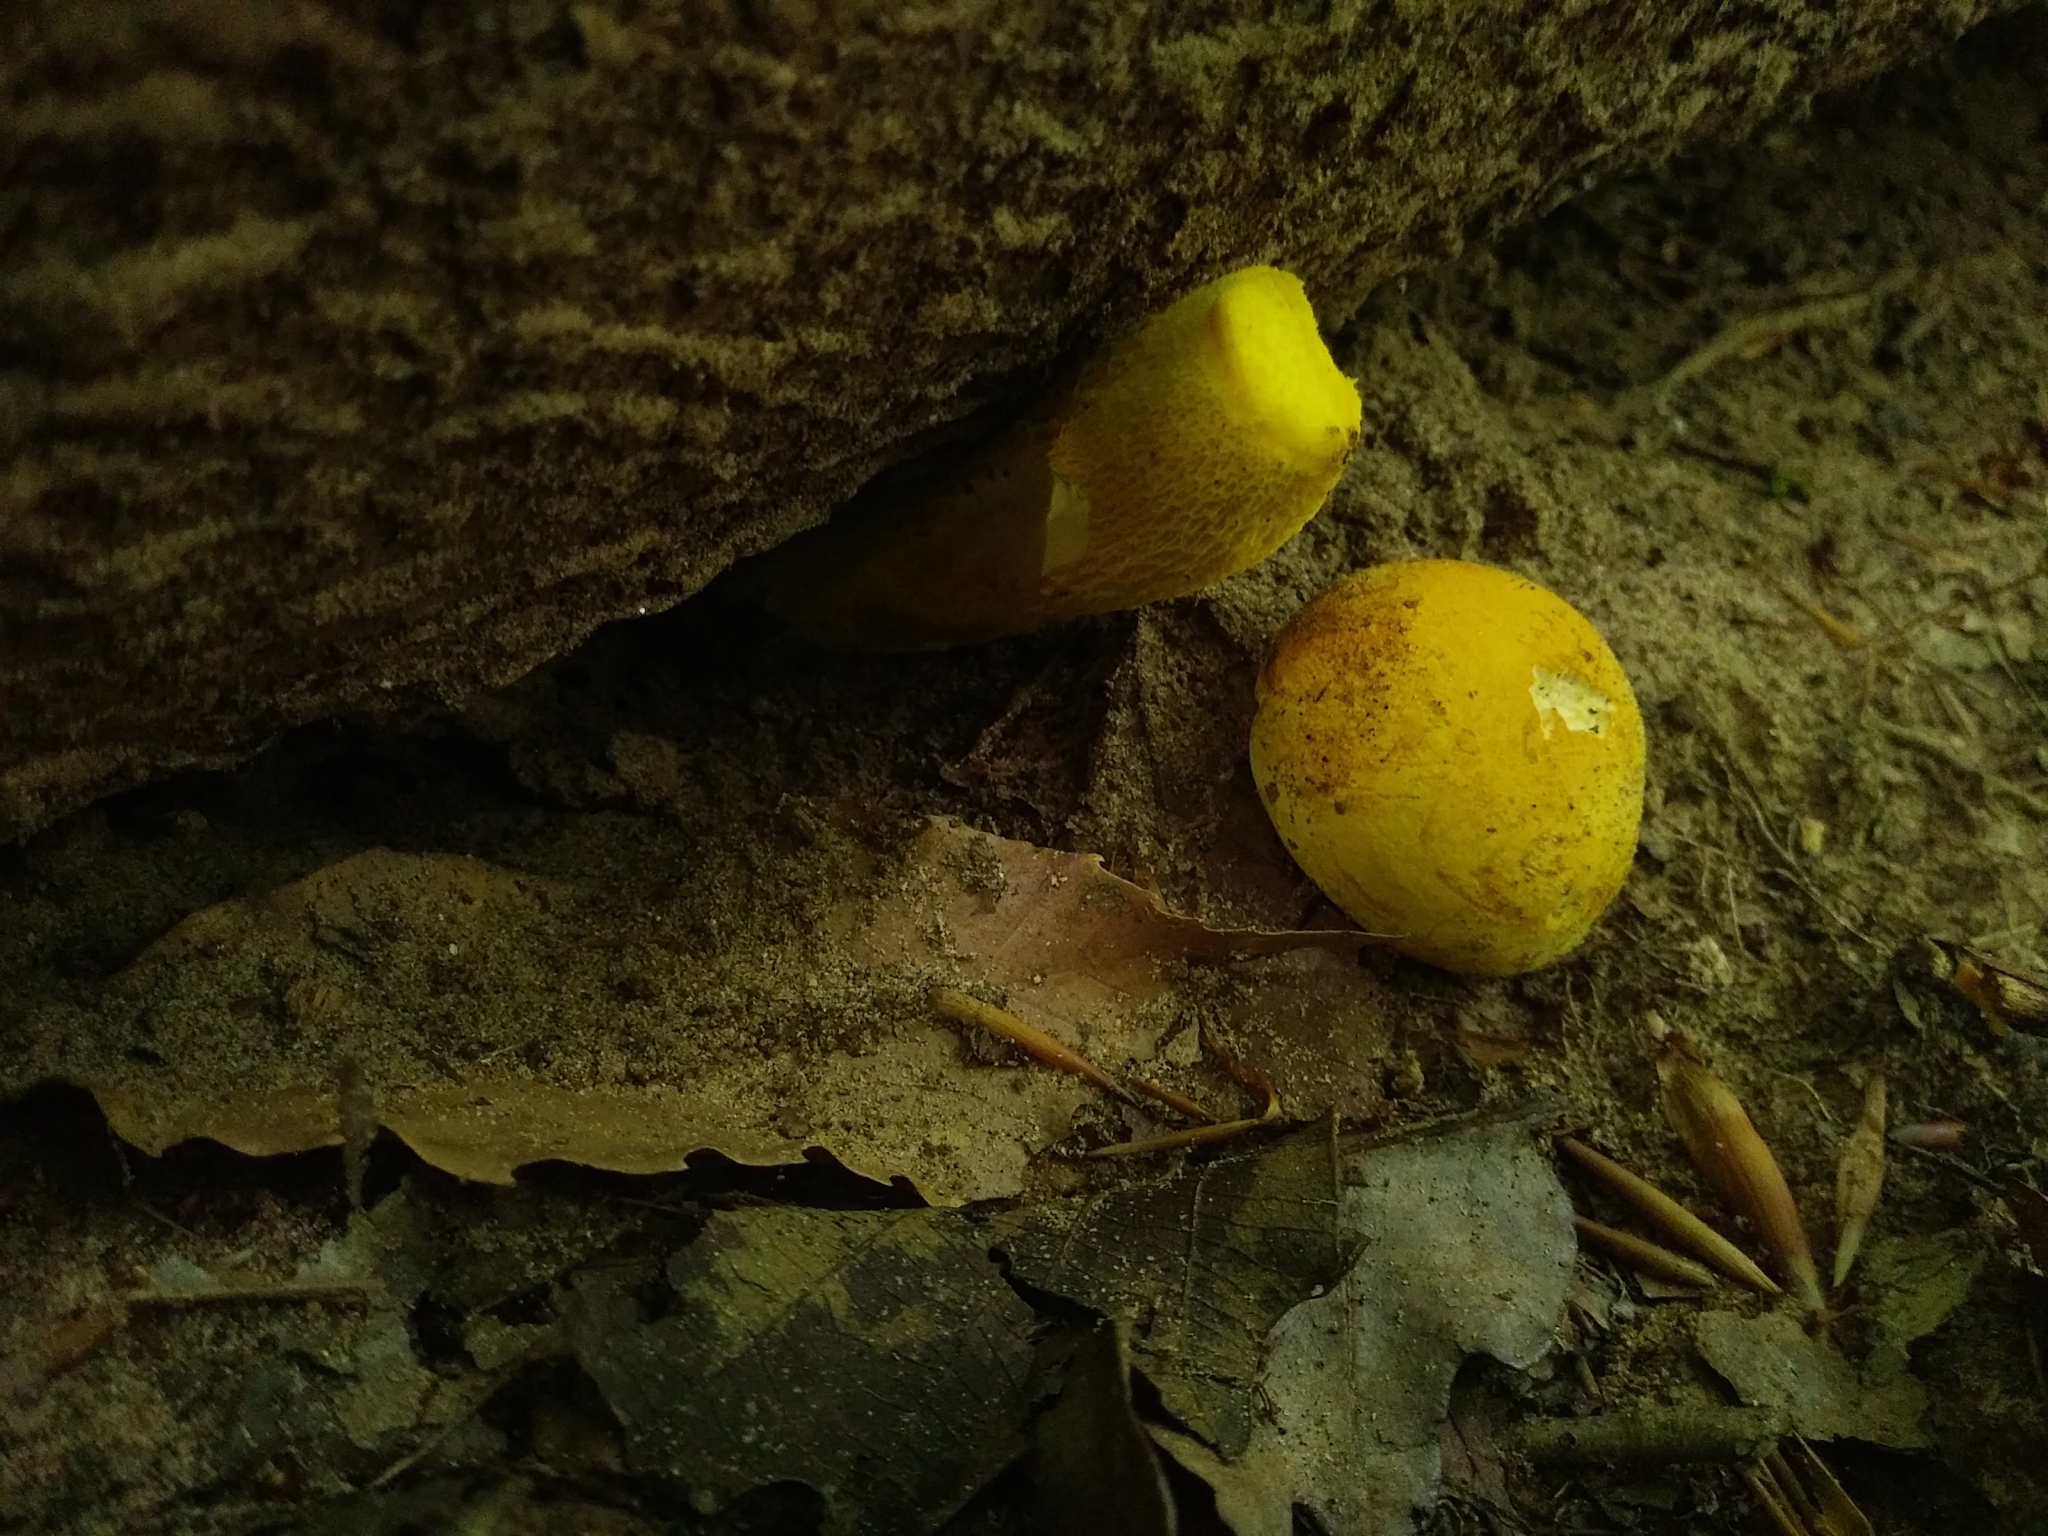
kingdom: Fungi
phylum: Basidiomycota
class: Agaricomycetes
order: Boletales
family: Boletaceae
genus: Retiboletus
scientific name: Retiboletus ornatipes
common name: Ornate-stalked bolete
